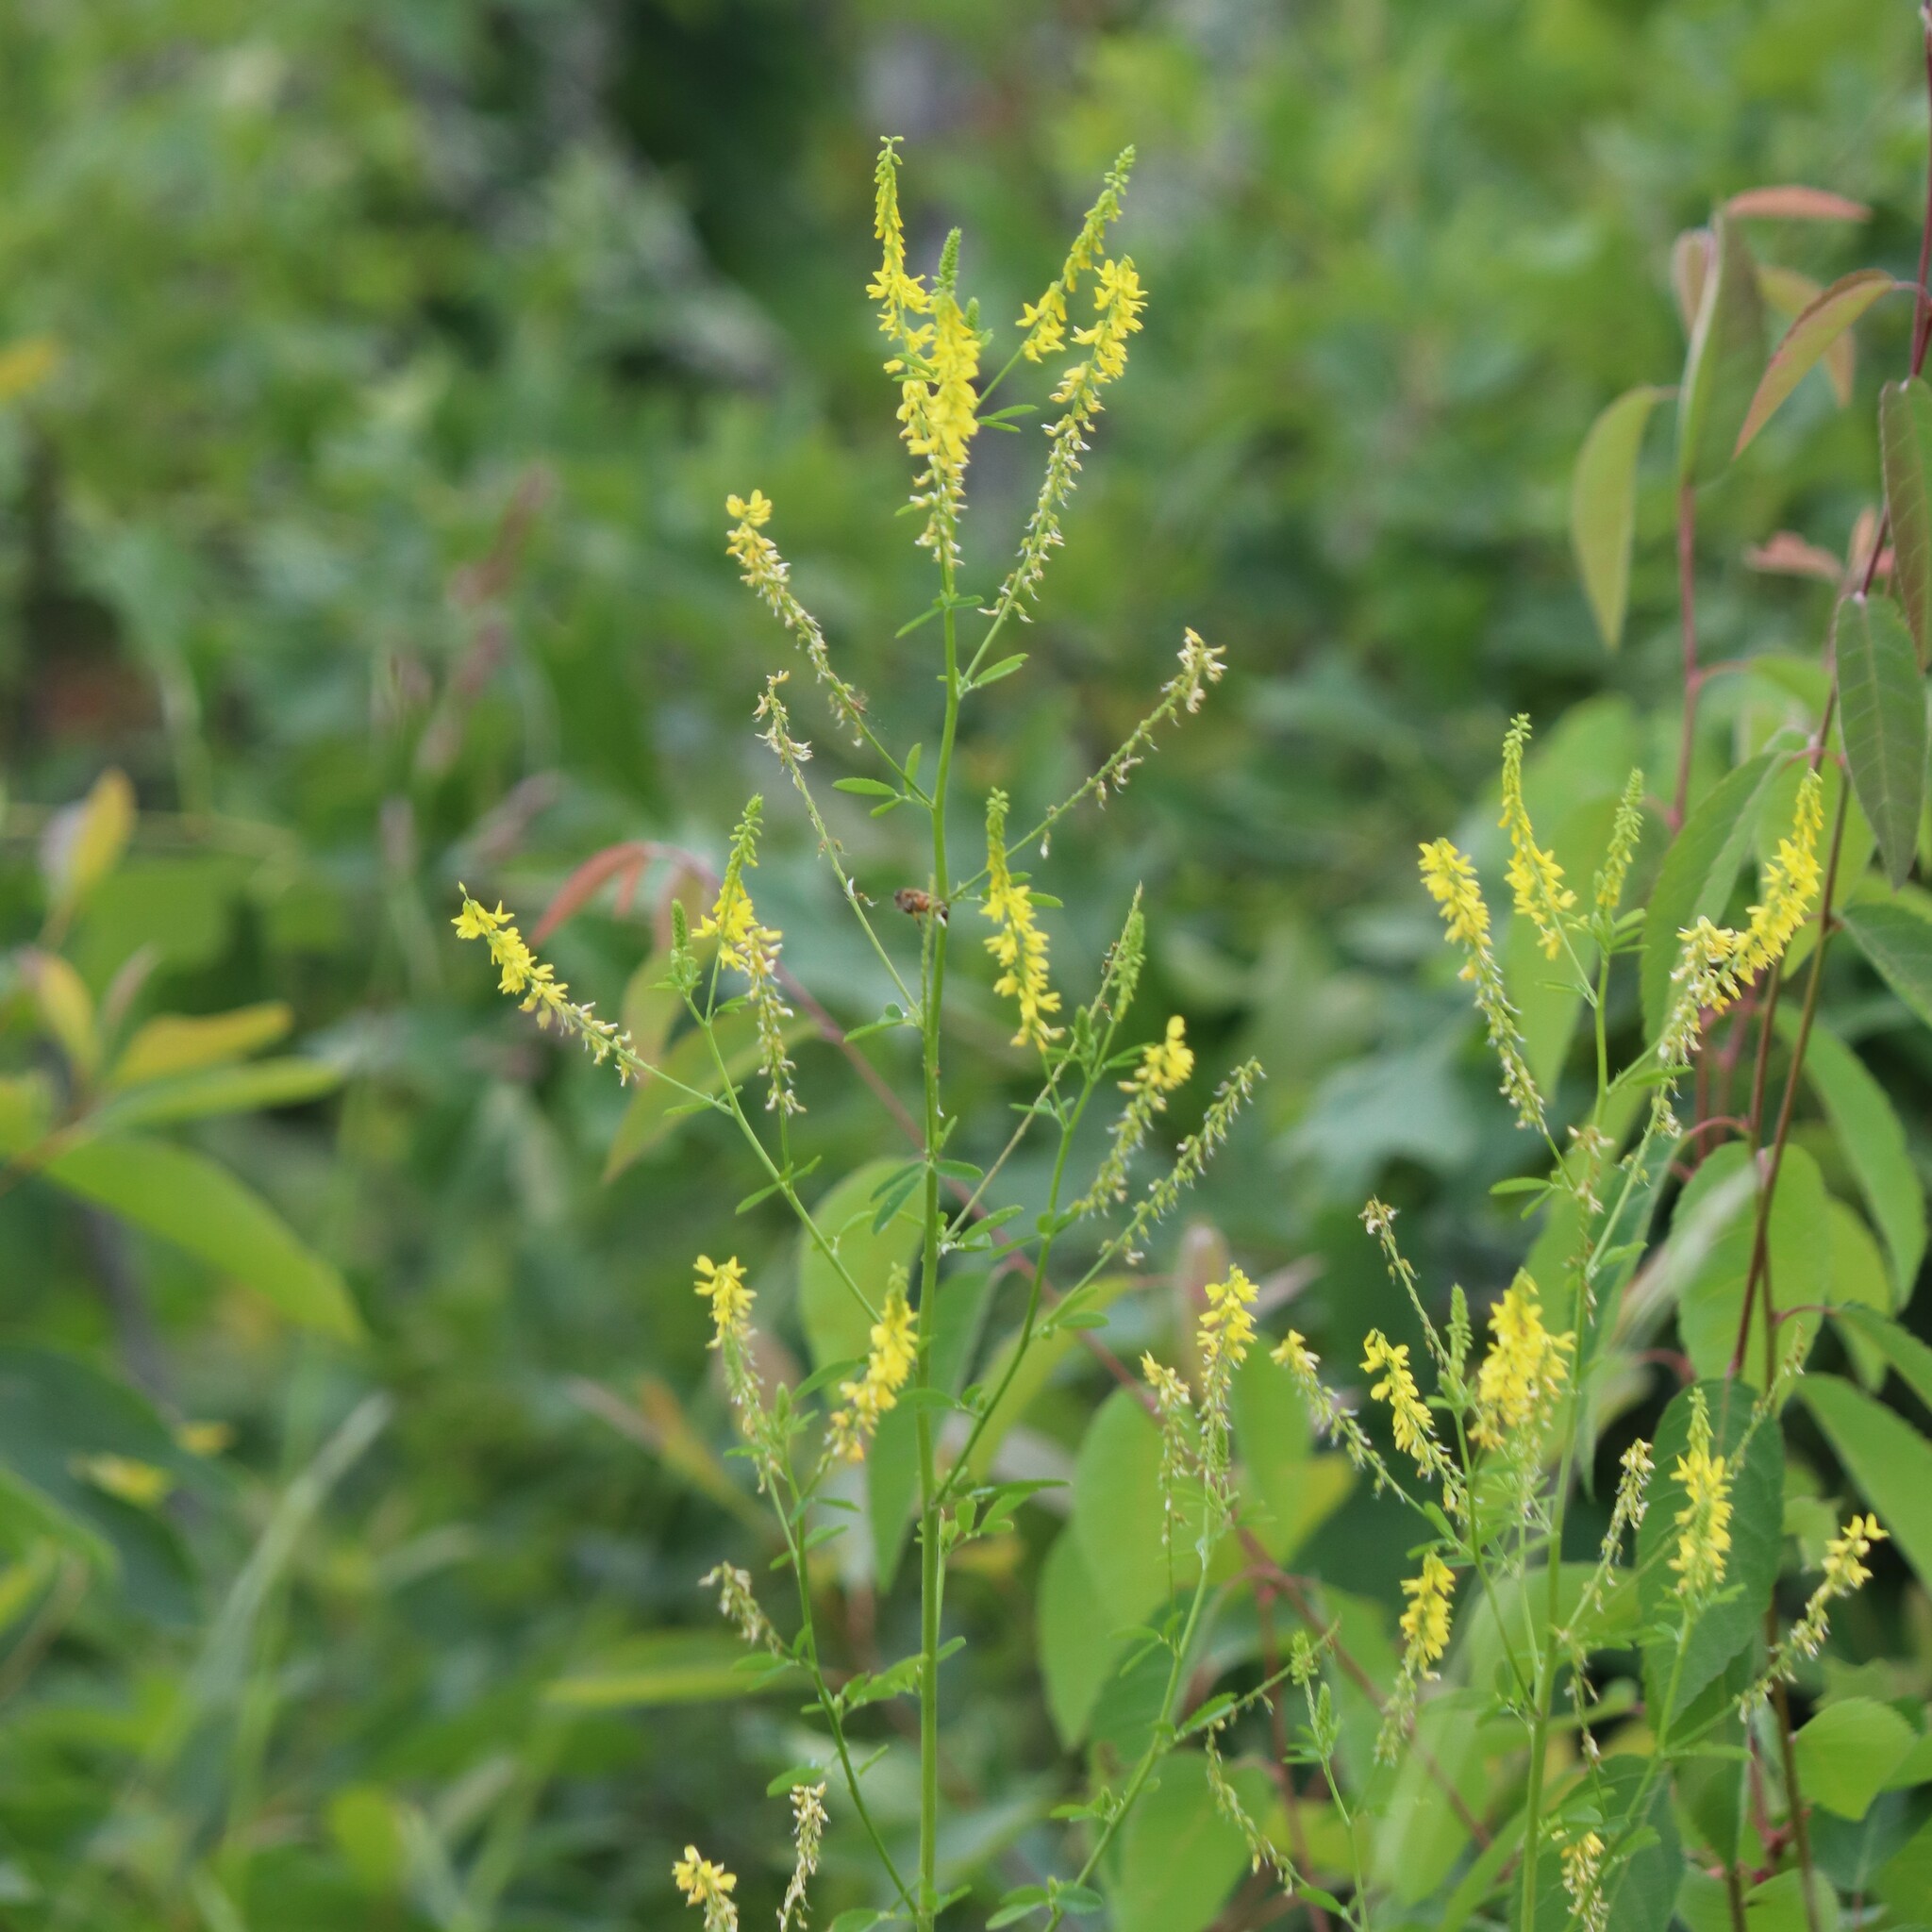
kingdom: Plantae
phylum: Tracheophyta
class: Magnoliopsida
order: Fabales
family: Fabaceae
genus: Melilotus
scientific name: Melilotus officinalis
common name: Sweetclover
